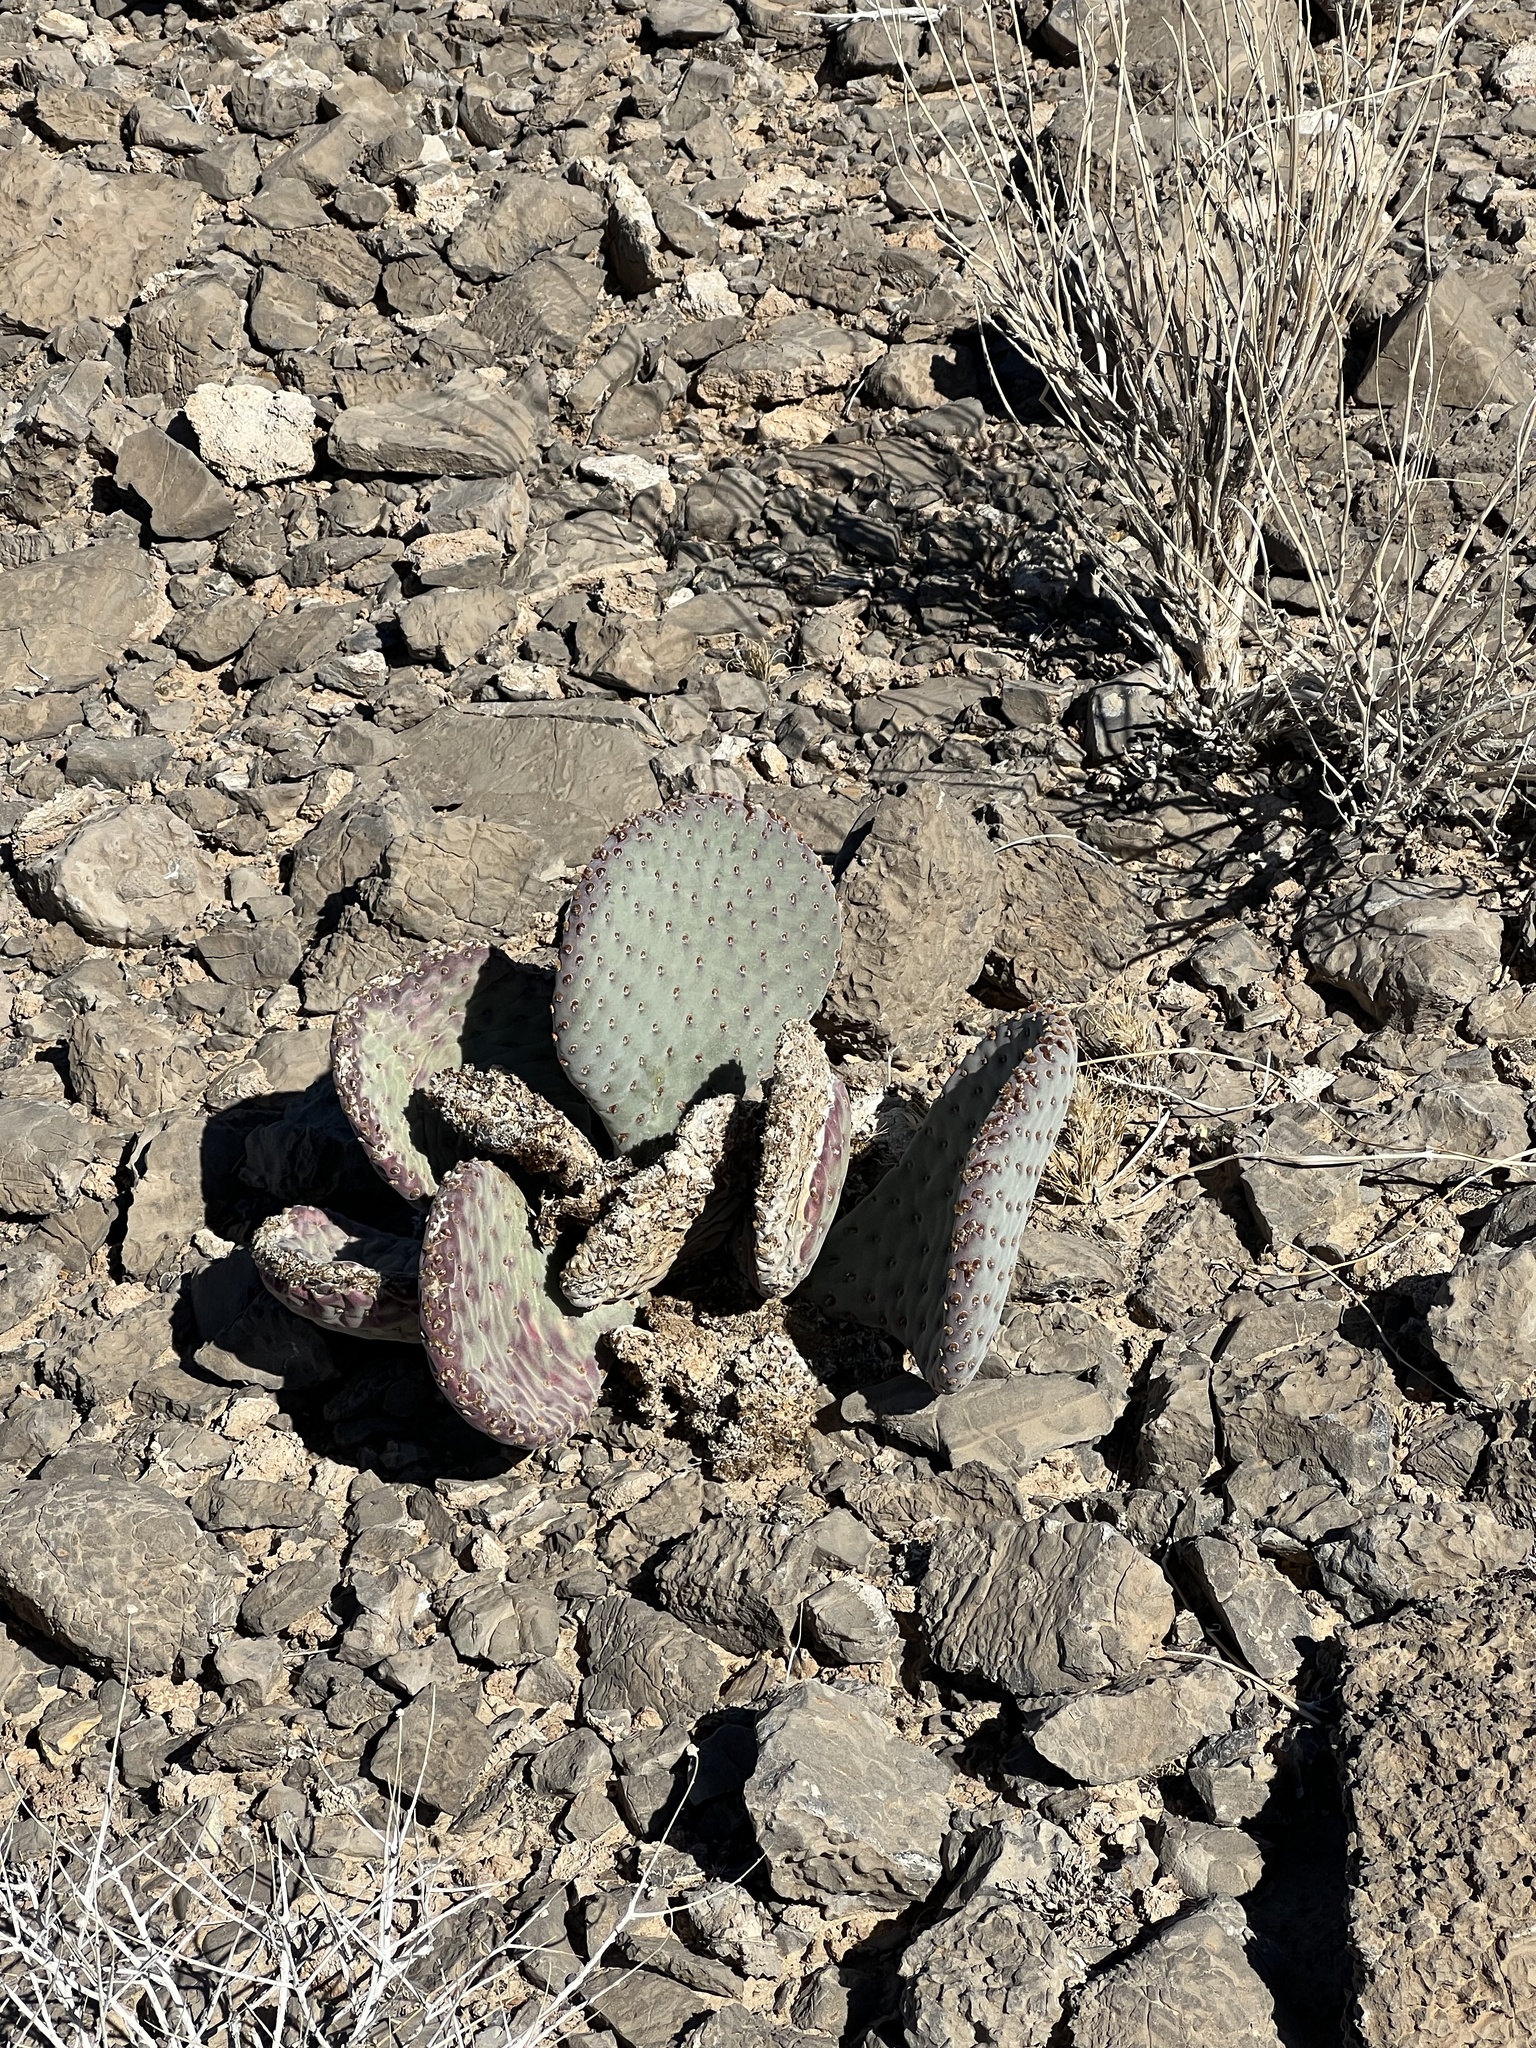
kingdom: Plantae
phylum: Tracheophyta
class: Magnoliopsida
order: Caryophyllales
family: Cactaceae
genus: Opuntia
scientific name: Opuntia basilaris
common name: Beavertail prickly-pear
